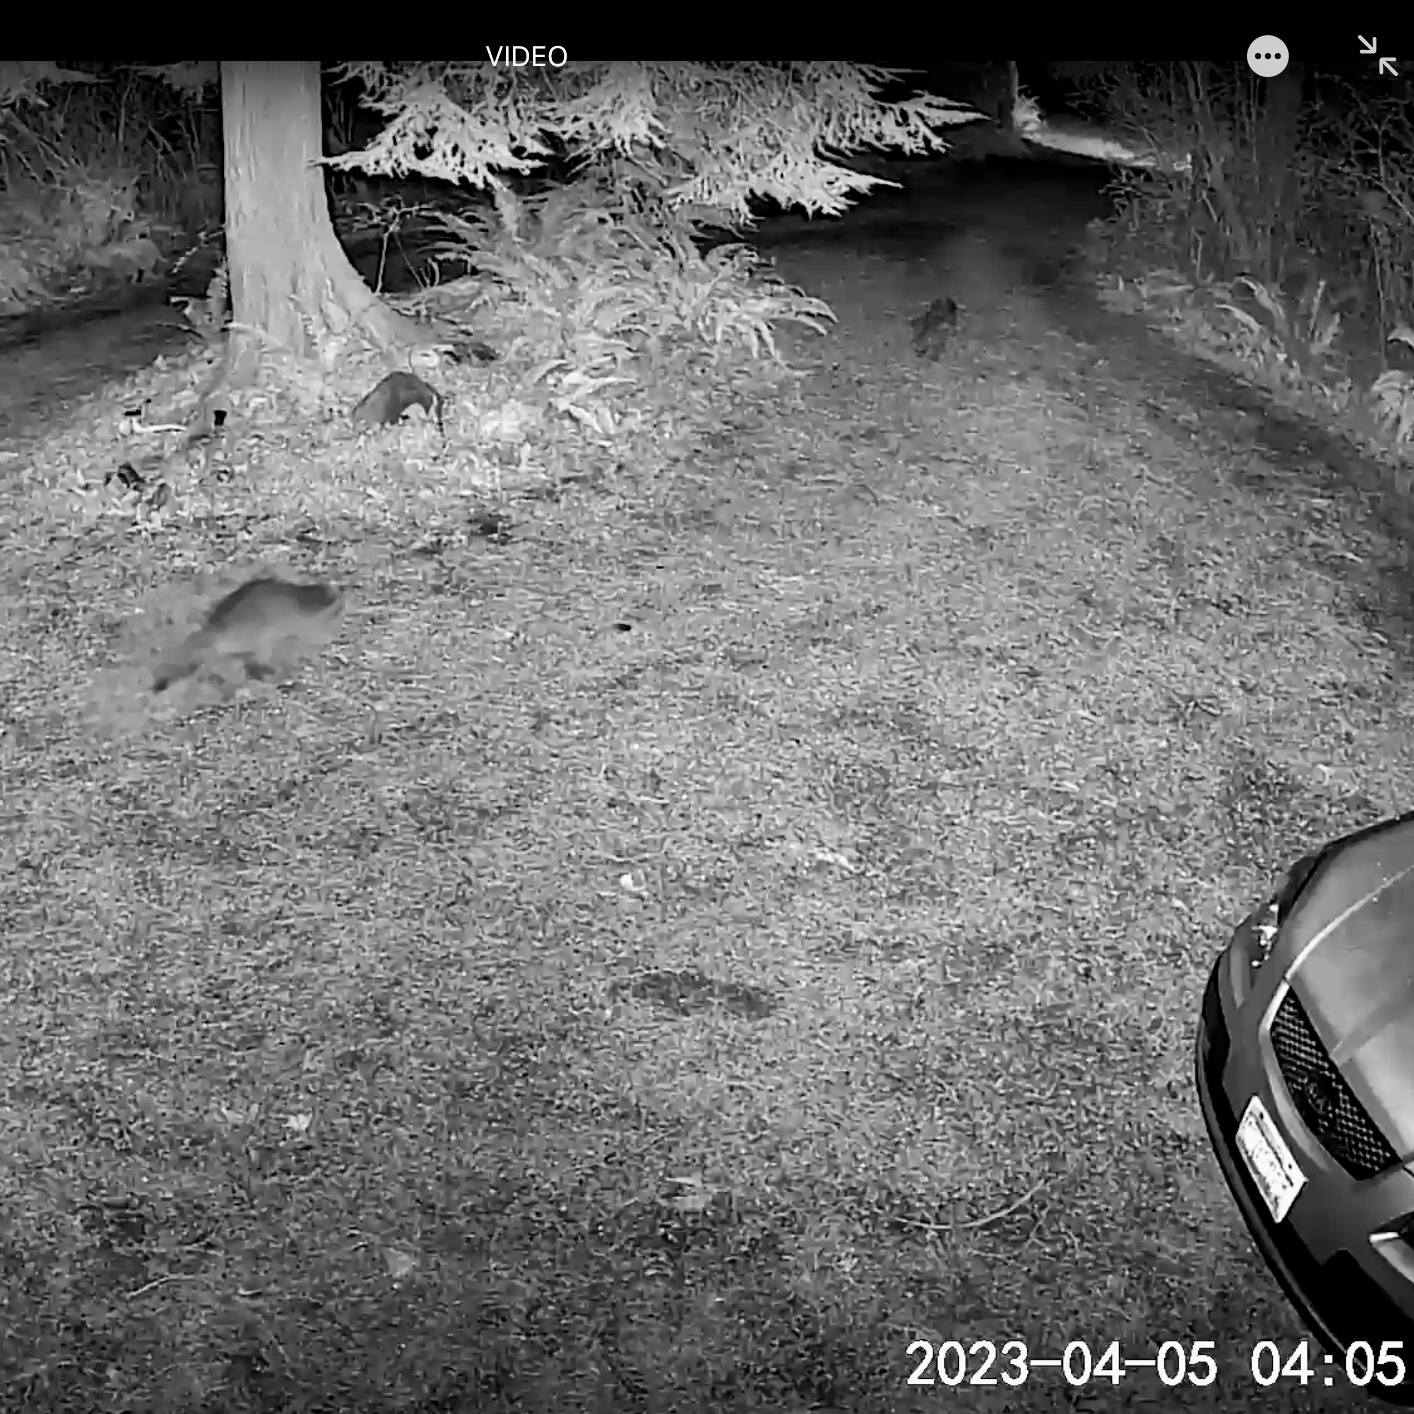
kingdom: Animalia
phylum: Chordata
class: Mammalia
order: Carnivora
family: Procyonidae
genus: Procyon
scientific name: Procyon lotor
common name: Raccoon
